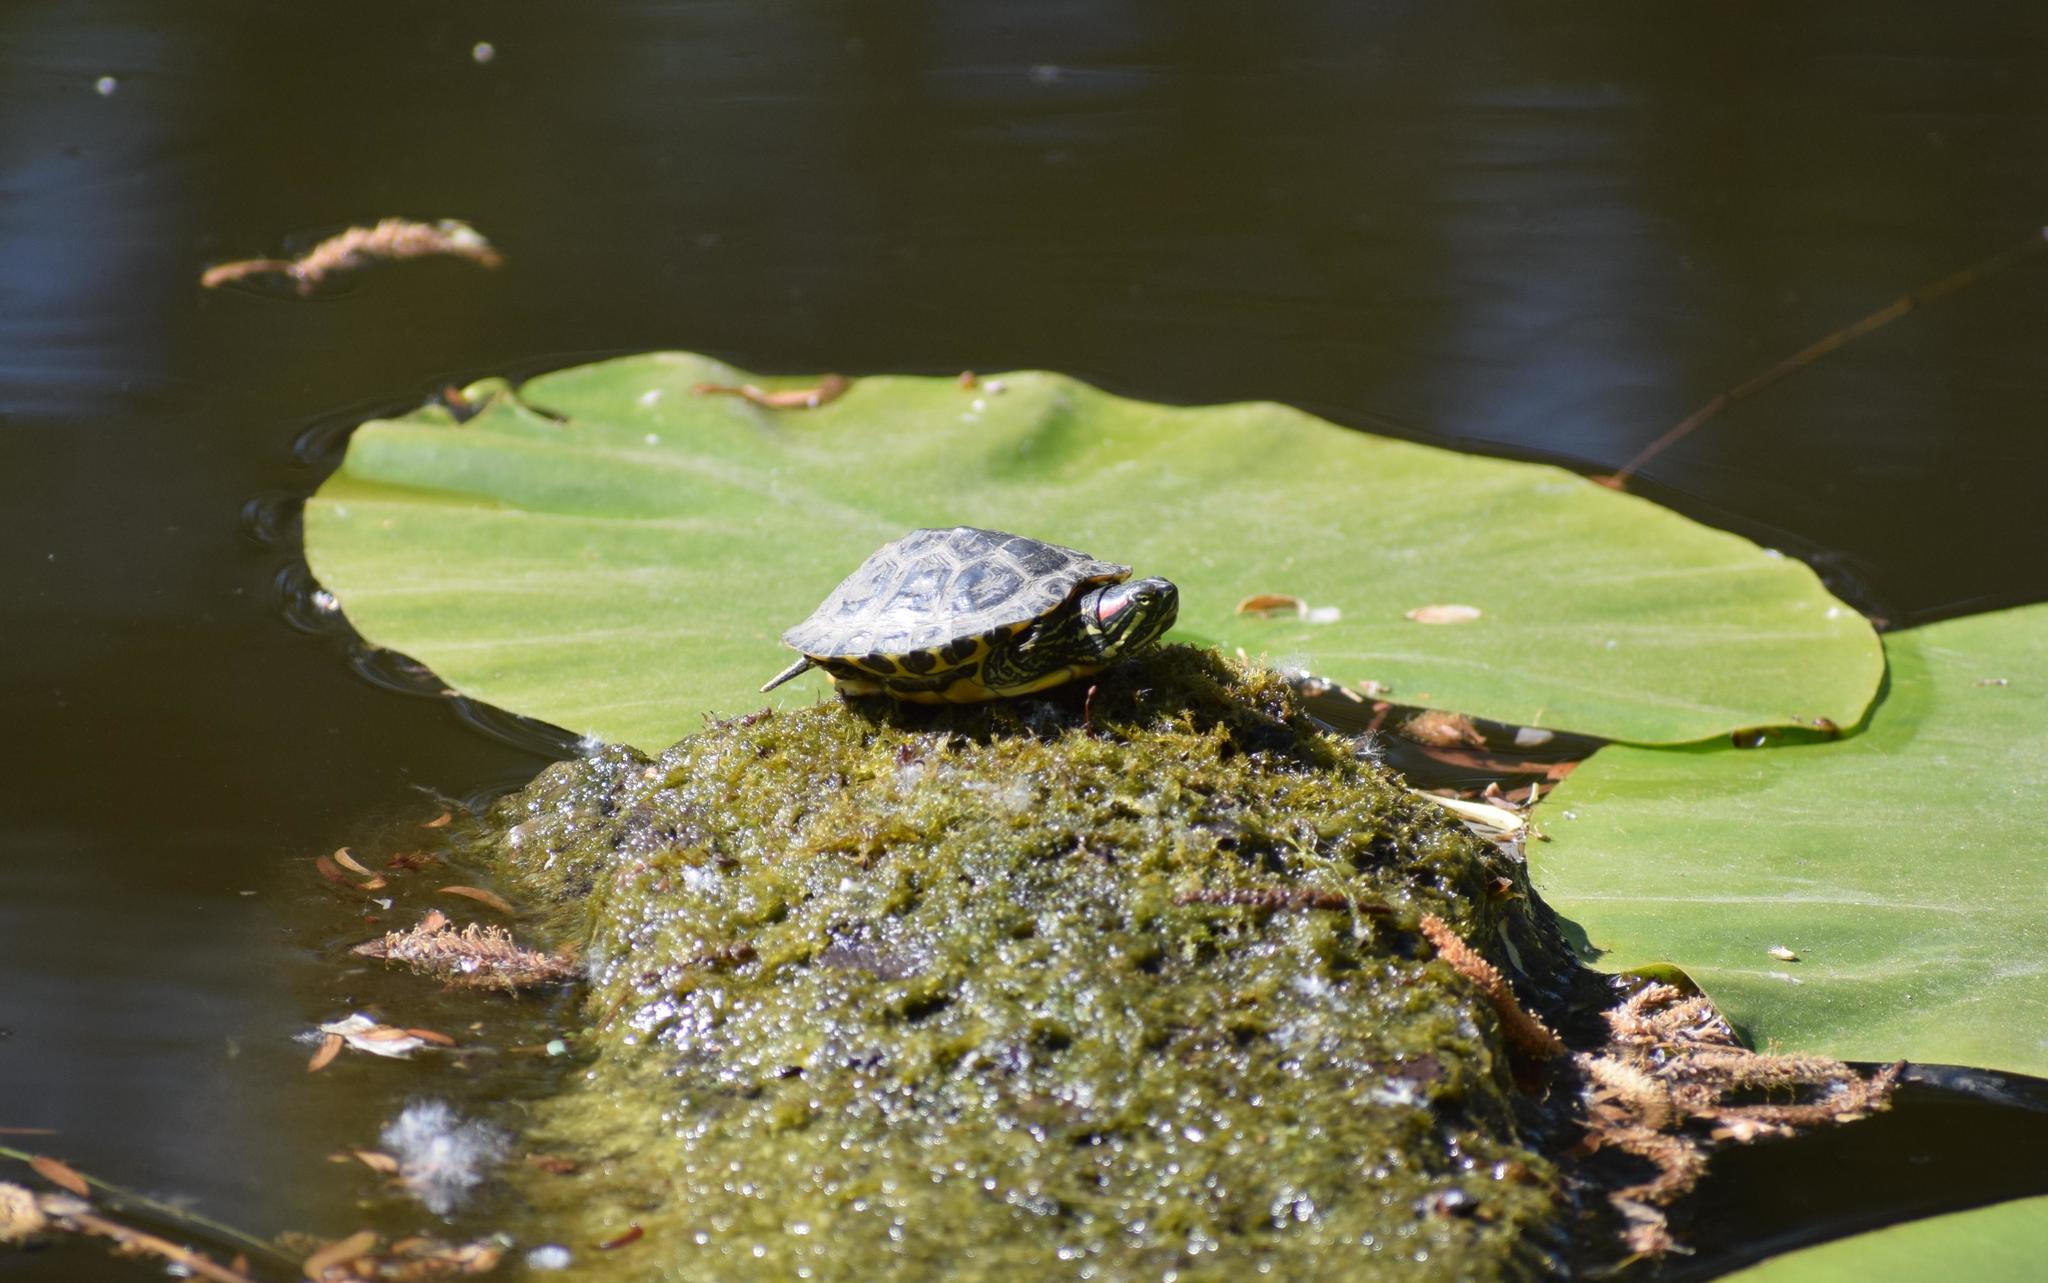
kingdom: Animalia
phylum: Chordata
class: Testudines
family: Emydidae
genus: Trachemys
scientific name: Trachemys scripta
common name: Slider
